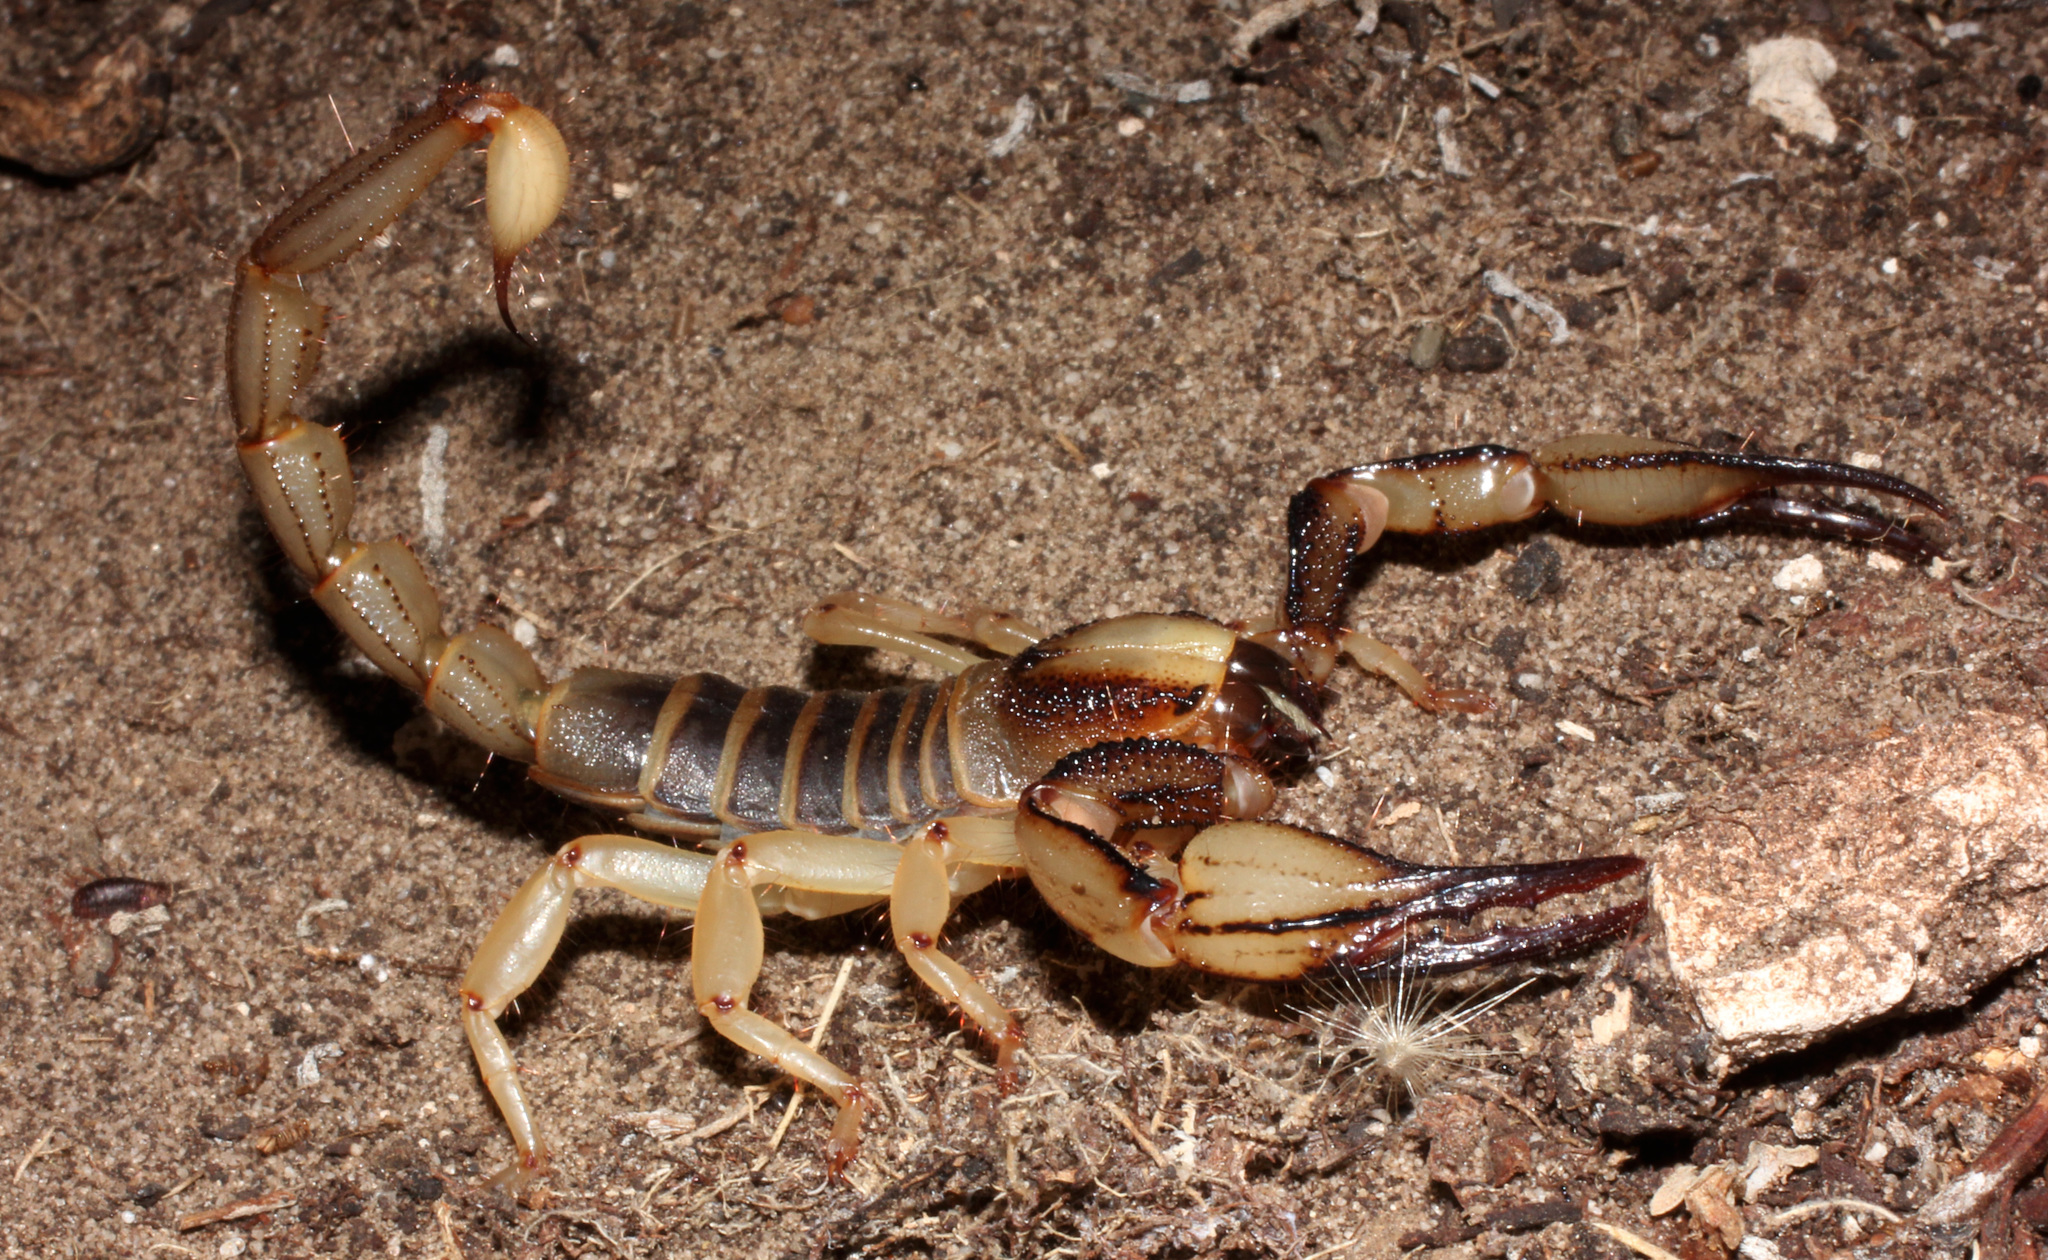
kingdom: Animalia
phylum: Arthropoda
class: Arachnida
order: Scorpiones
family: Scorpionidae
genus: Opistophthalmus
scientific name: Opistophthalmus capensis
